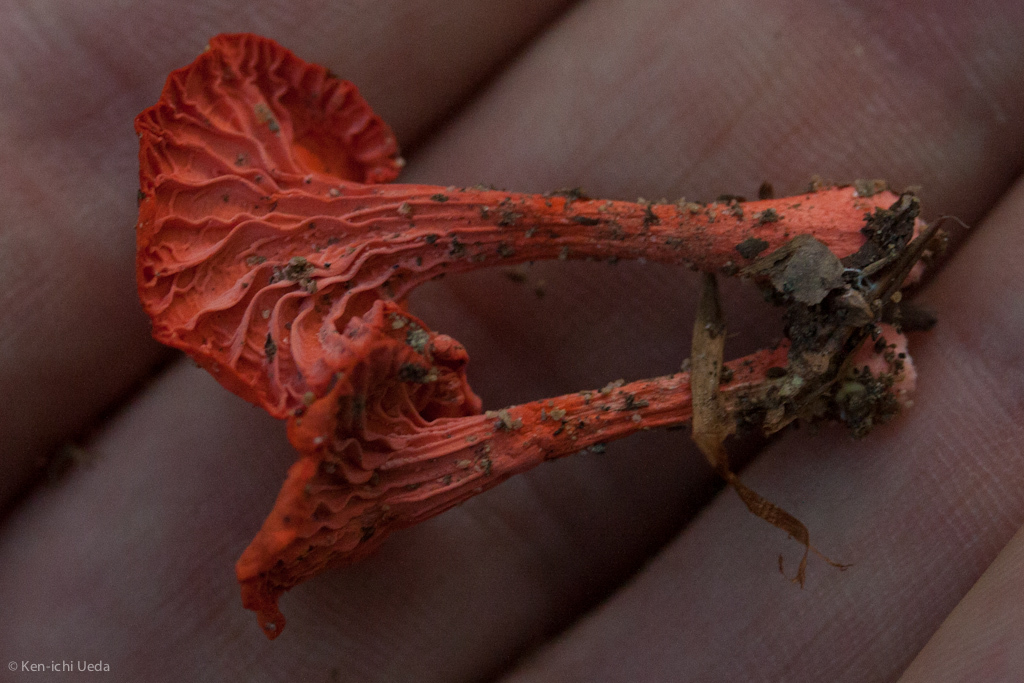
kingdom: Fungi
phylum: Basidiomycota
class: Agaricomycetes
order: Cantharellales
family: Hydnaceae
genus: Cantharellus
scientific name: Cantharellus cinnabarinus
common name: Cinnabar chanterelle
